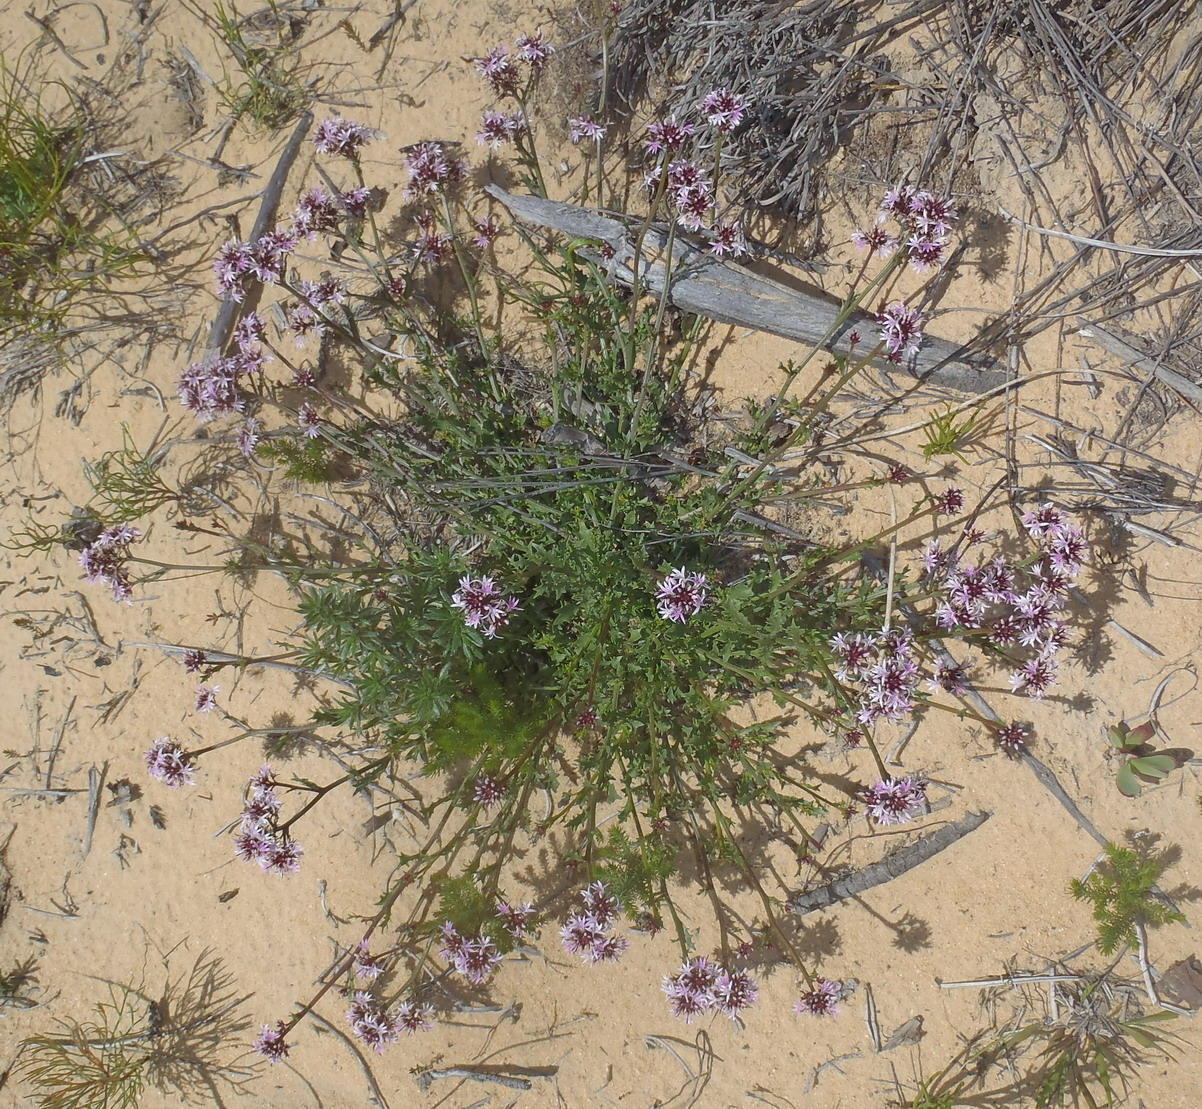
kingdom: Plantae
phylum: Tracheophyta
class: Magnoliopsida
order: Asterales
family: Campanulaceae
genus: Lobelia
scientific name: Lobelia jasionoides
